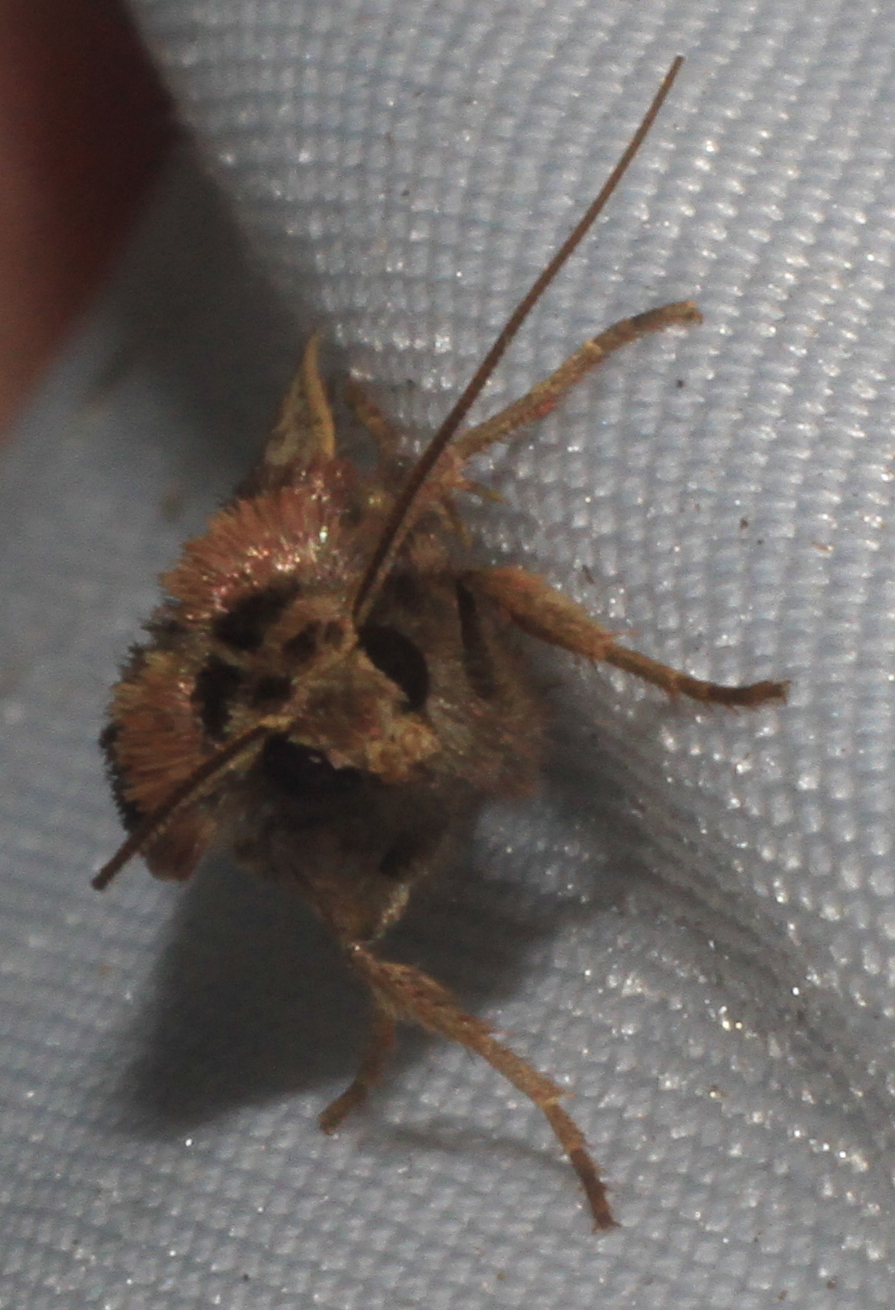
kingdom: Animalia
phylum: Arthropoda
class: Insecta
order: Lepidoptera
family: Noctuidae
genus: Ochropleura
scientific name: Ochropleura plecta
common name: Flame shoulder
